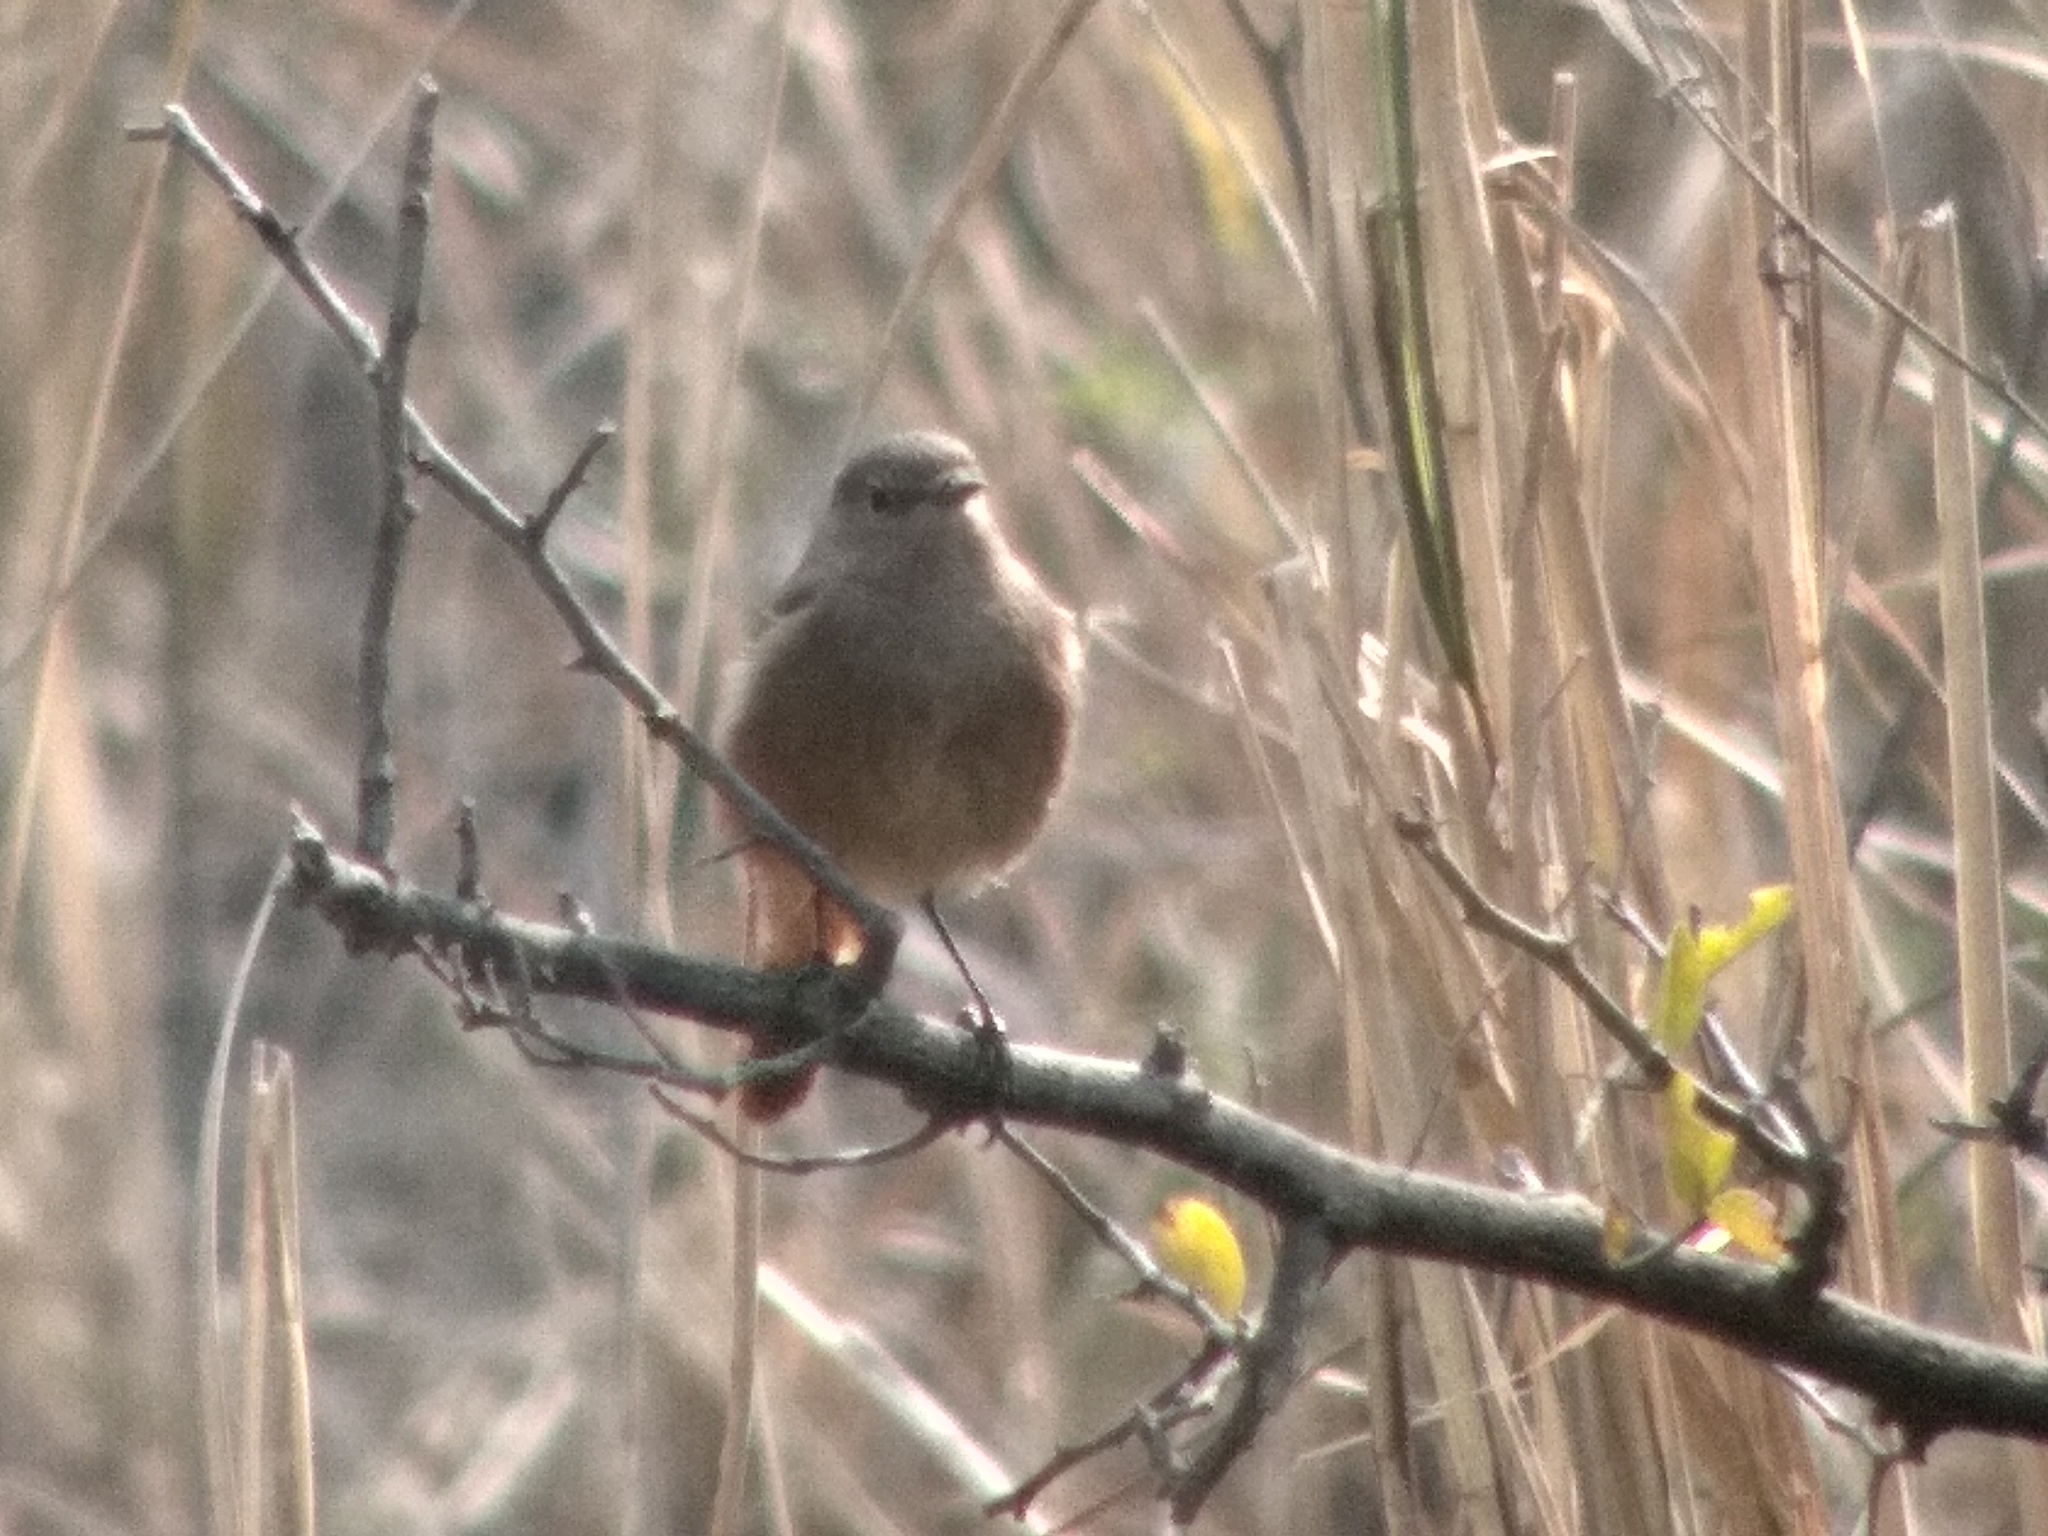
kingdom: Animalia
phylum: Chordata
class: Aves
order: Passeriformes
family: Muscicapidae
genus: Phoenicurus
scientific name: Phoenicurus ochruros
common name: Black redstart
